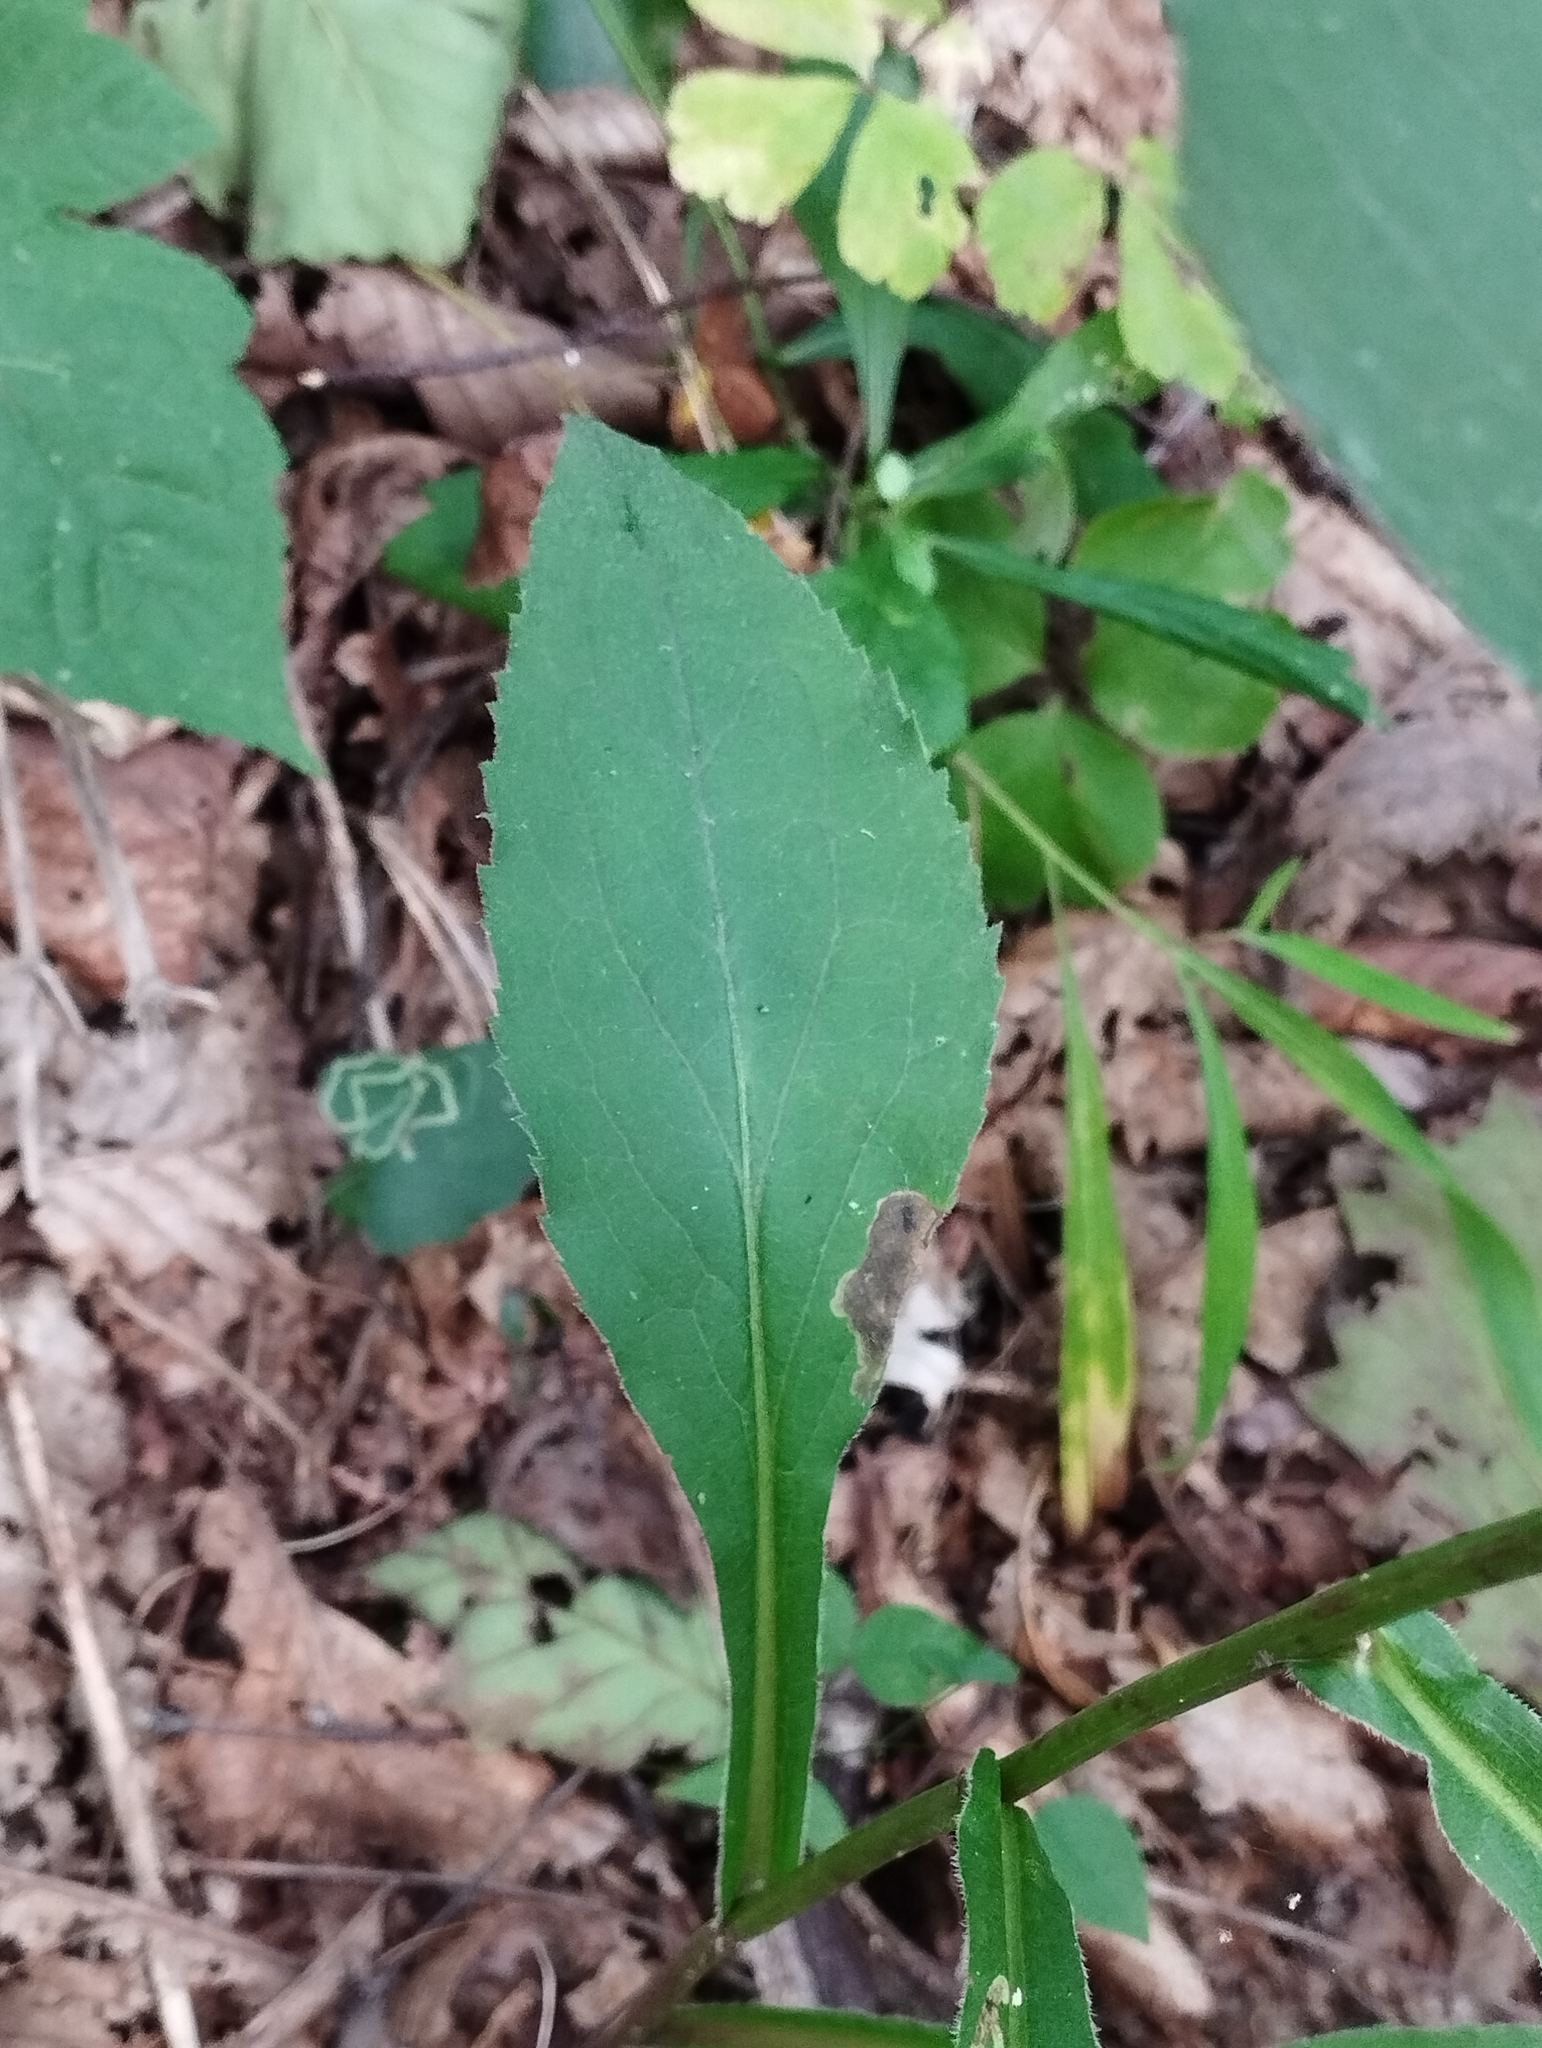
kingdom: Plantae
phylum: Tracheophyta
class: Magnoliopsida
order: Asterales
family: Asteraceae
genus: Solidago
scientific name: Solidago decurrens
